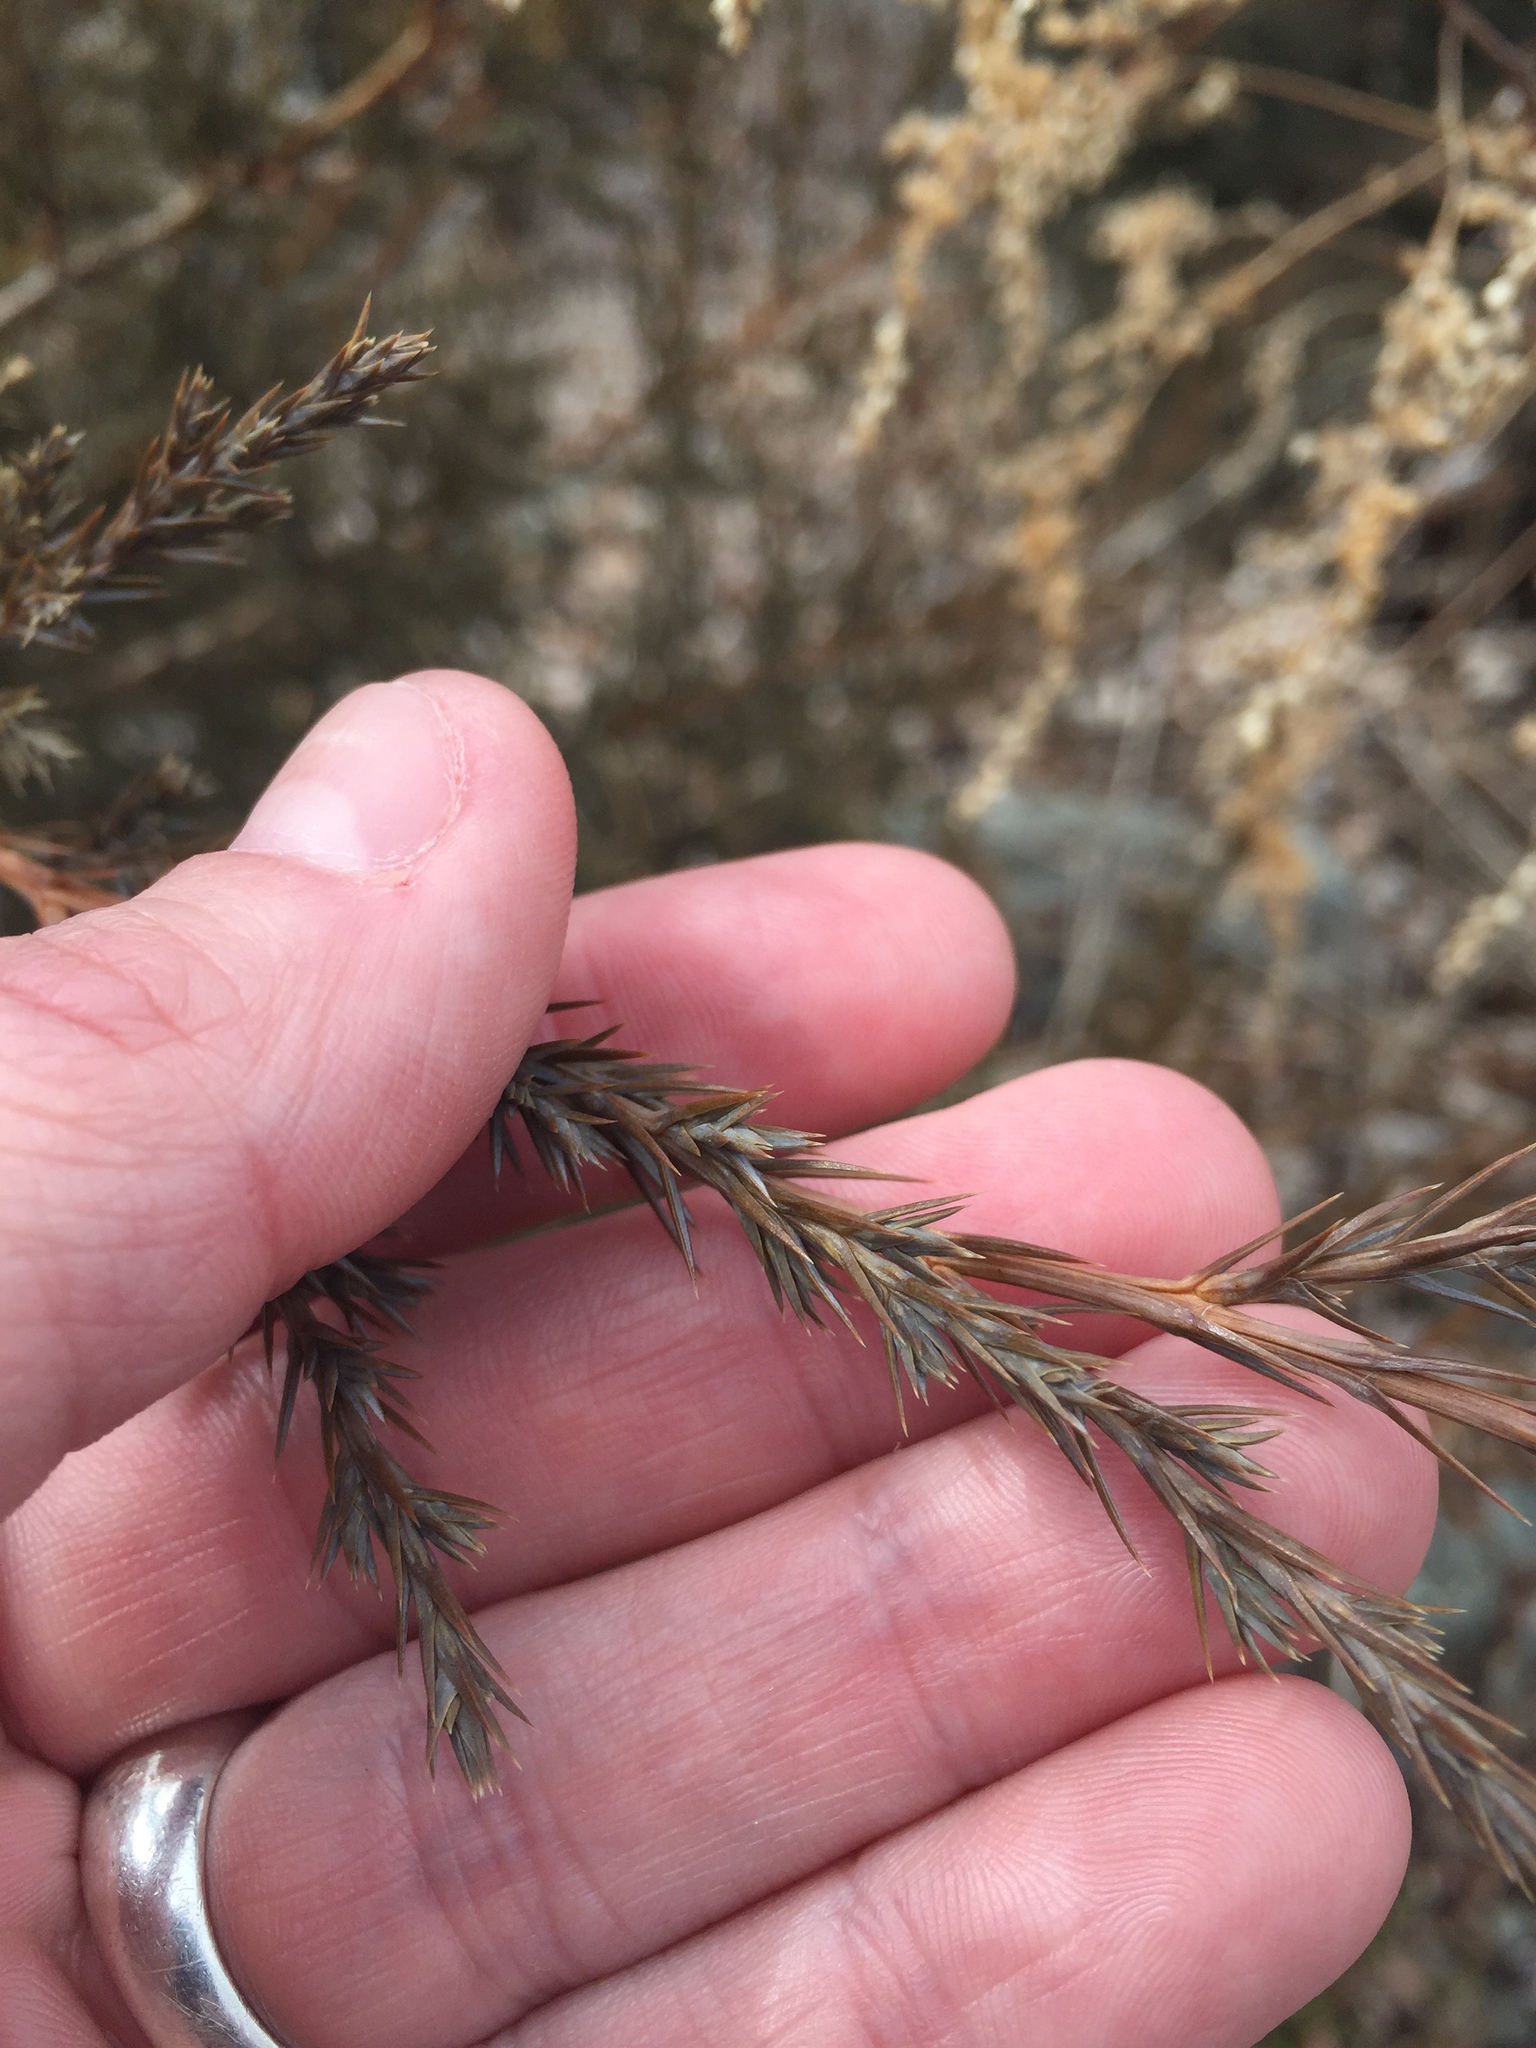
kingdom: Plantae
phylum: Tracheophyta
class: Pinopsida
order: Pinales
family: Cupressaceae
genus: Juniperus
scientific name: Juniperus virginiana
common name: Red juniper
